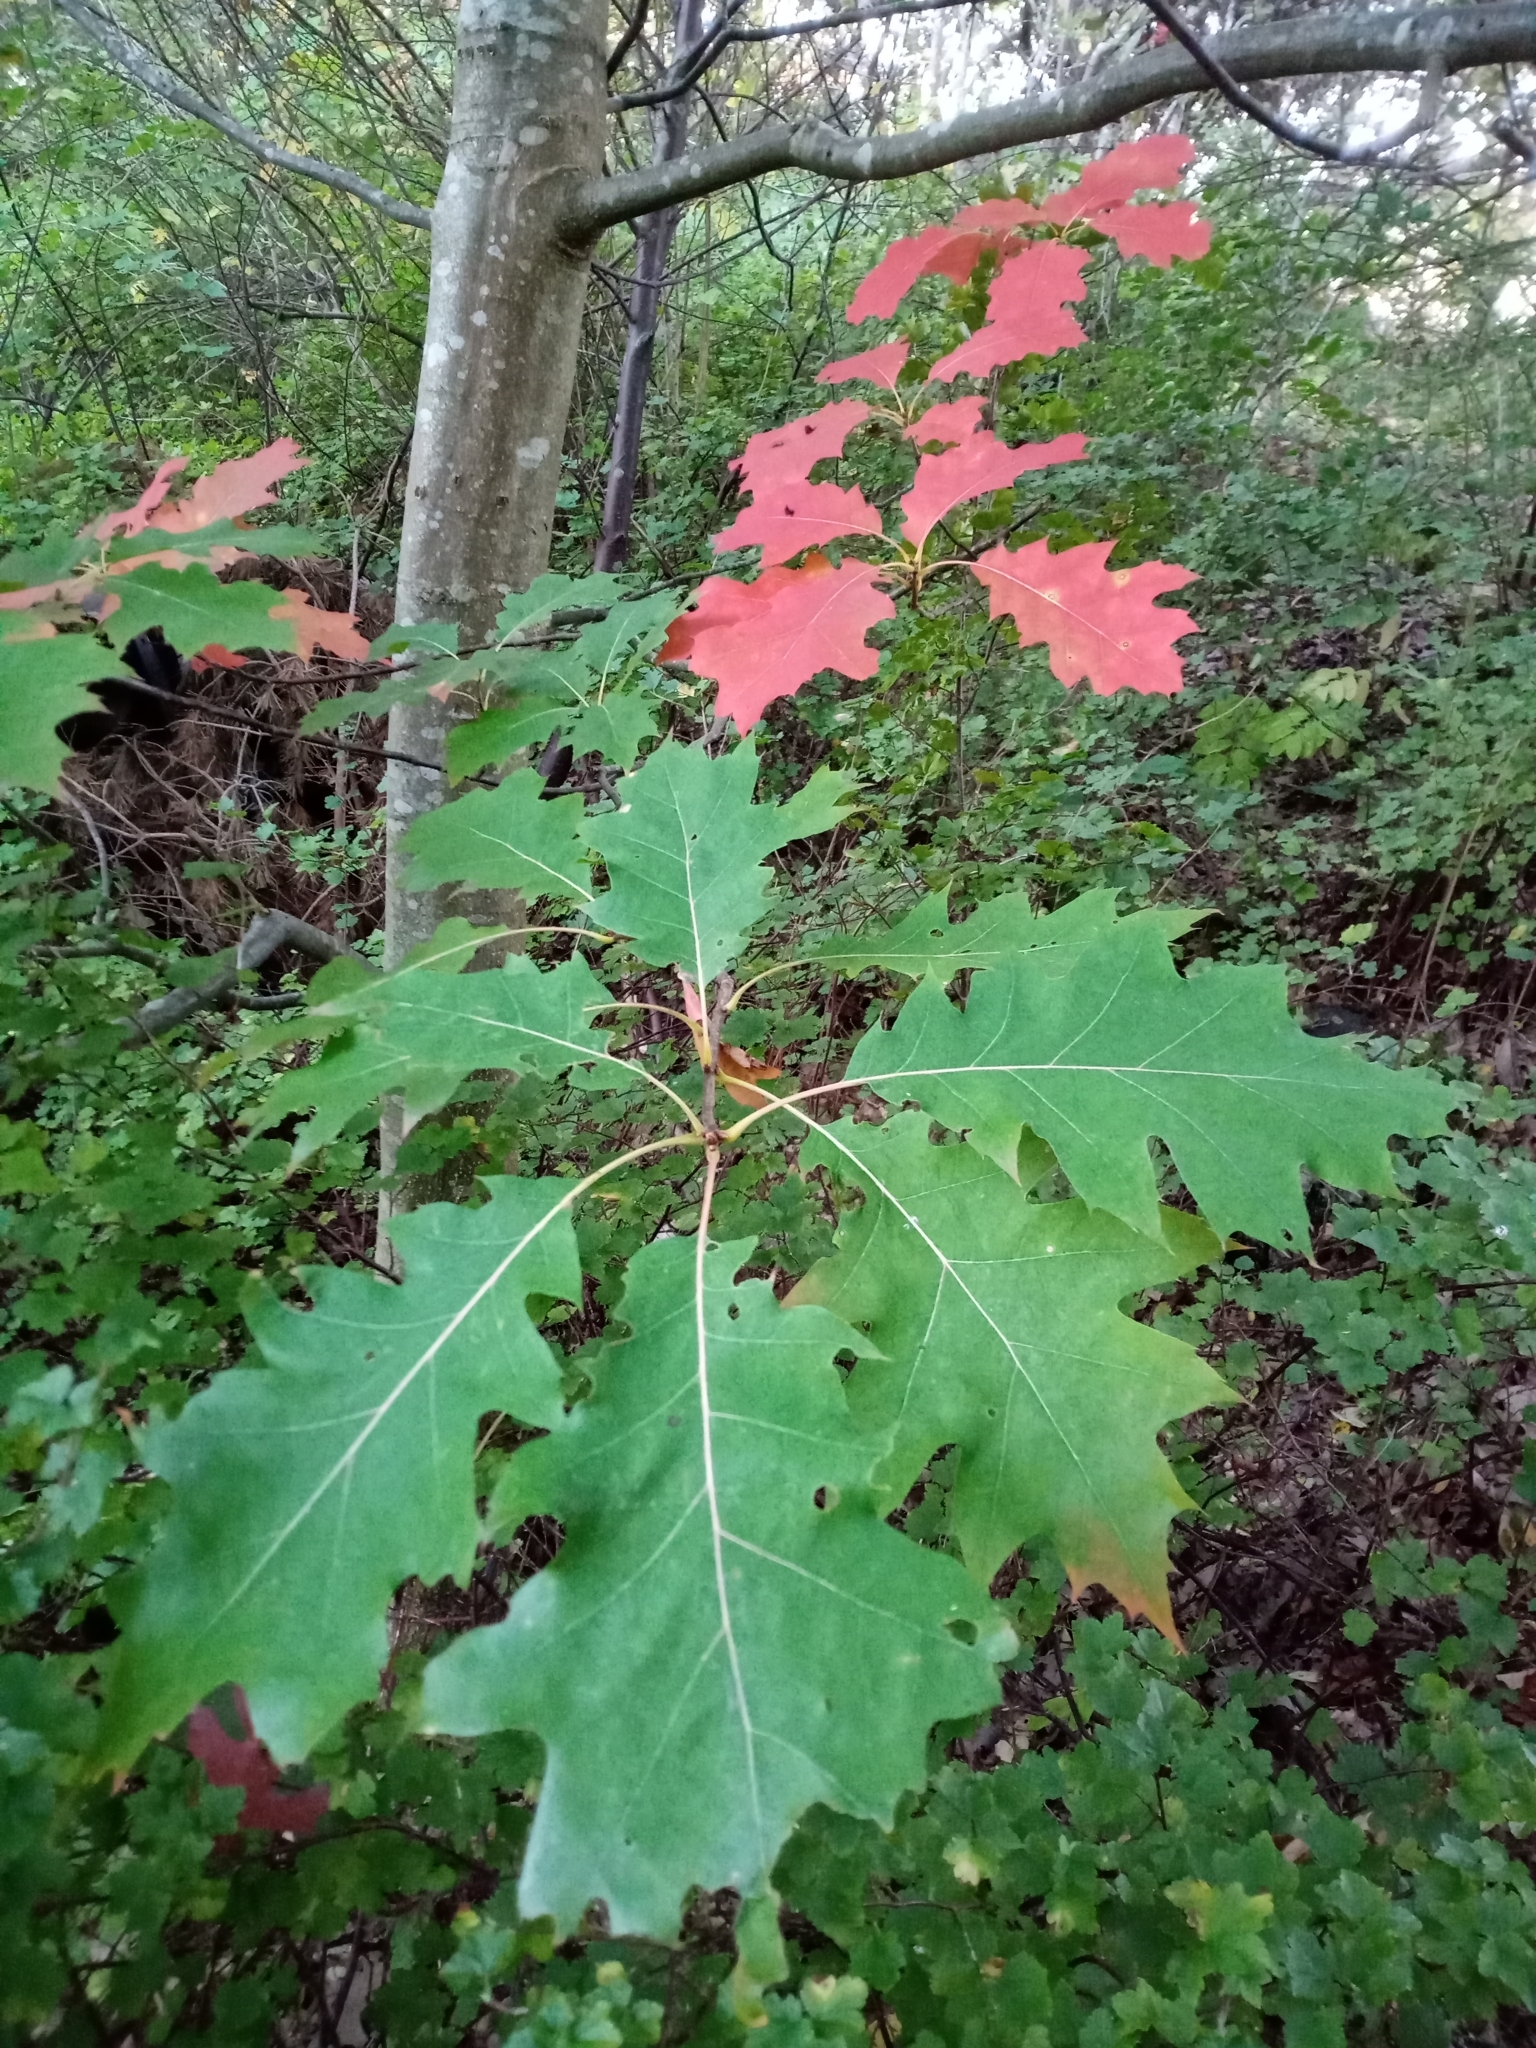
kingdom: Plantae
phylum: Tracheophyta
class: Magnoliopsida
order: Fagales
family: Fagaceae
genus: Quercus
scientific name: Quercus rubra
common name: Red oak
